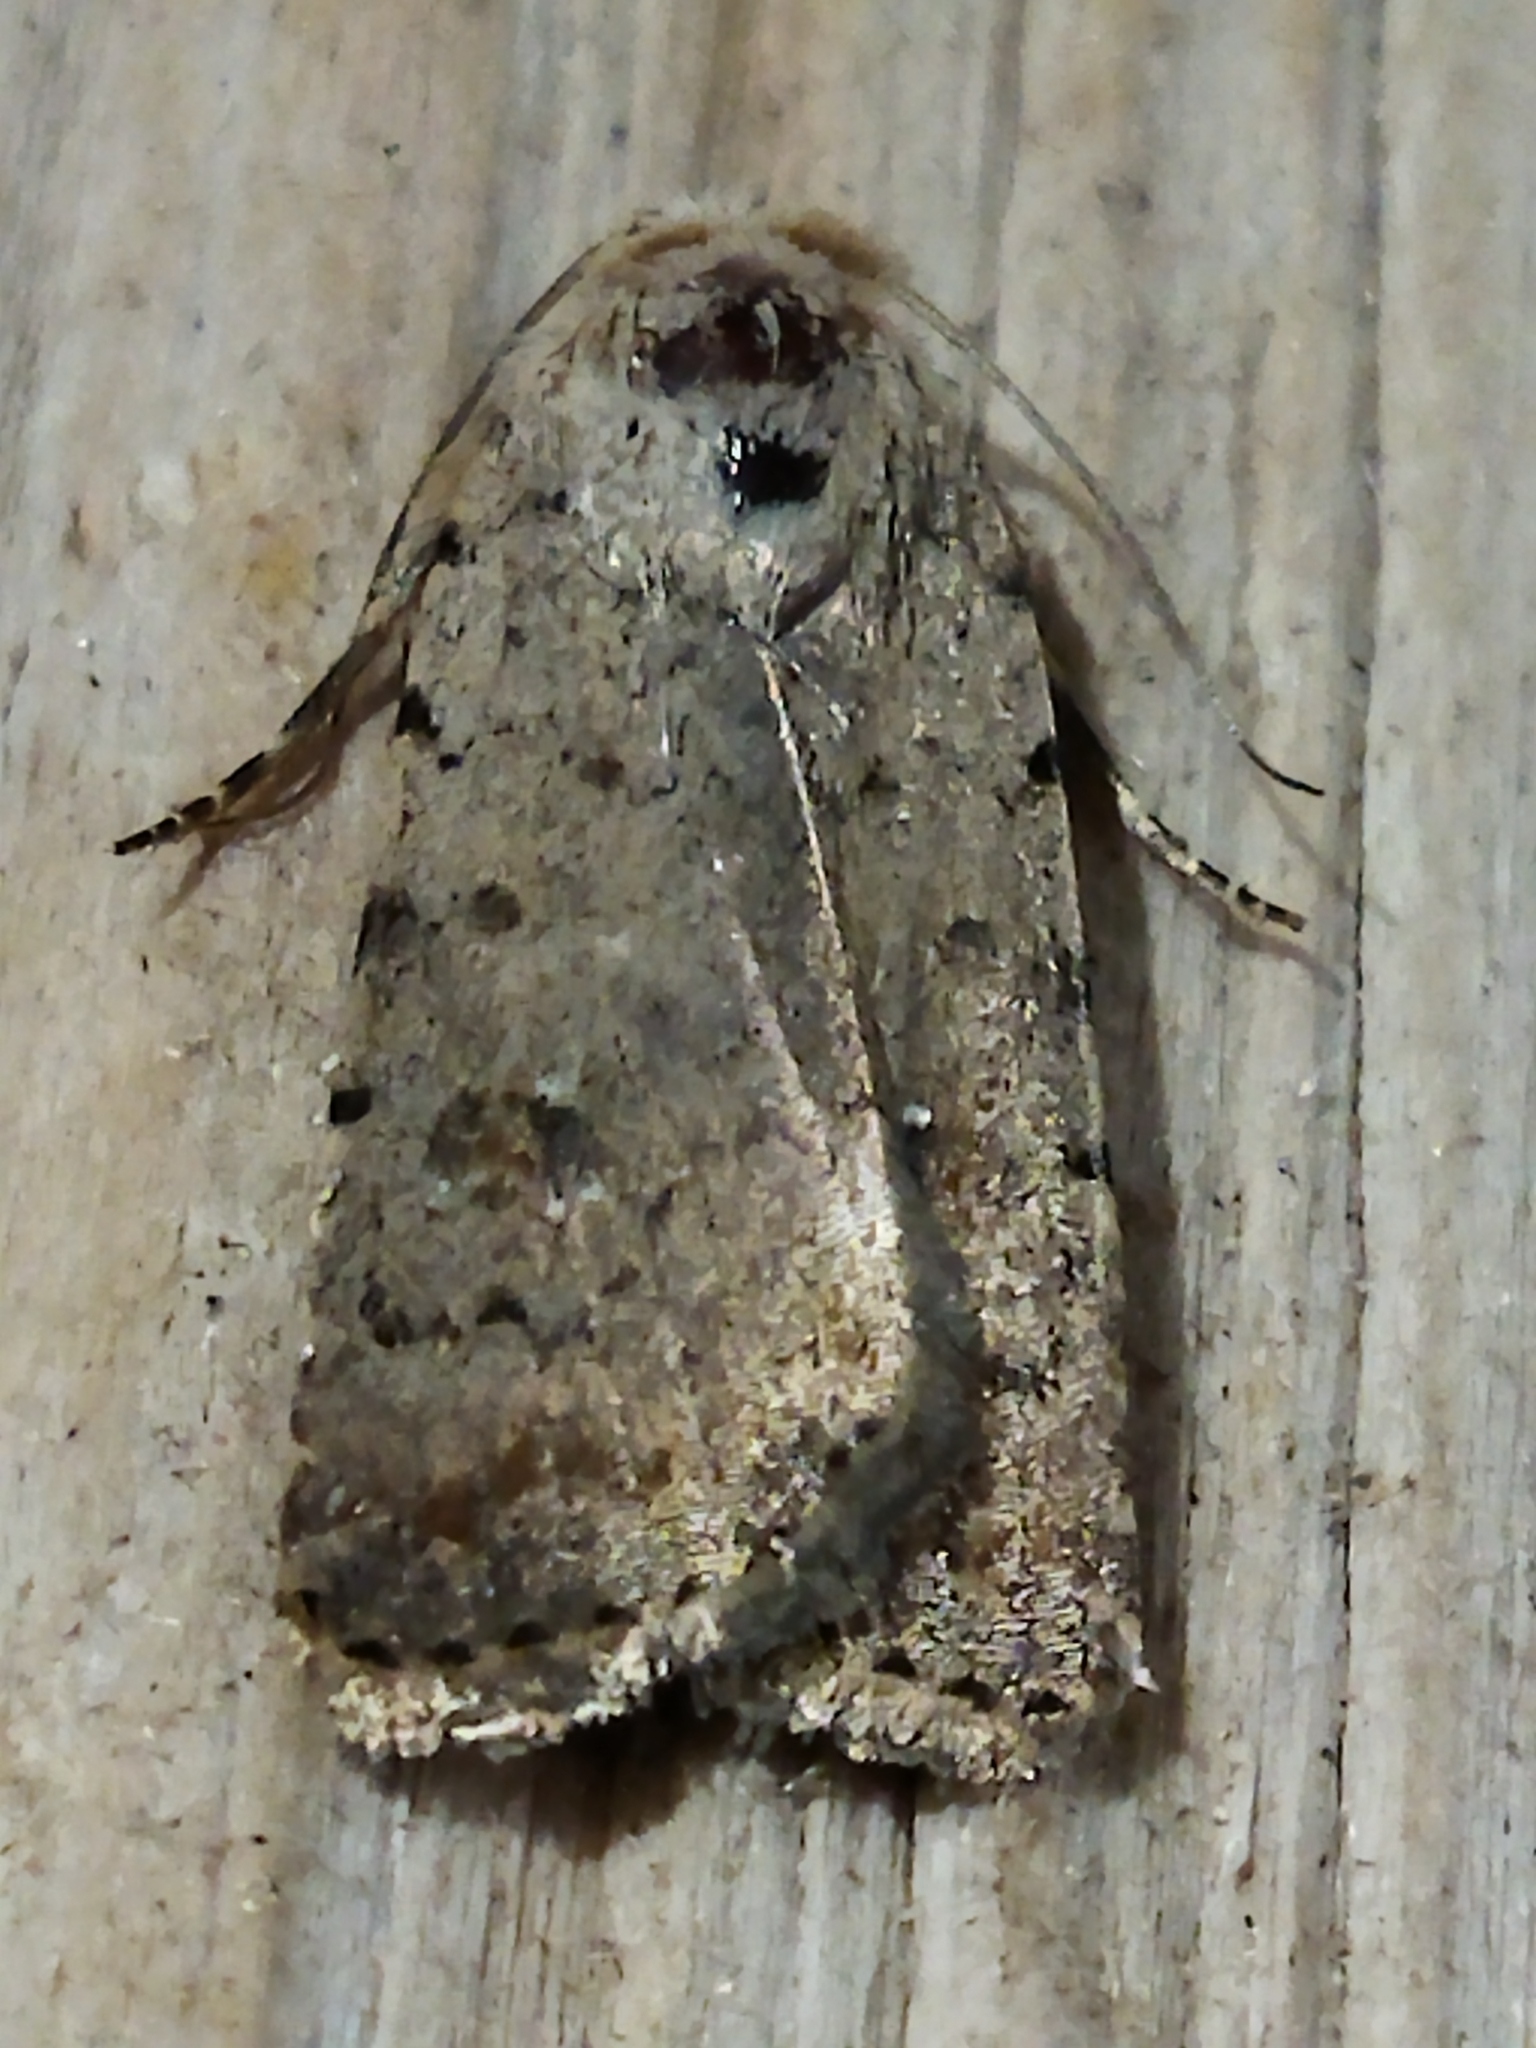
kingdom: Animalia
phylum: Arthropoda
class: Insecta
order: Lepidoptera
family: Noctuidae
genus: Caradrina
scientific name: Caradrina clavipalpis
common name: Pale mottled willow
